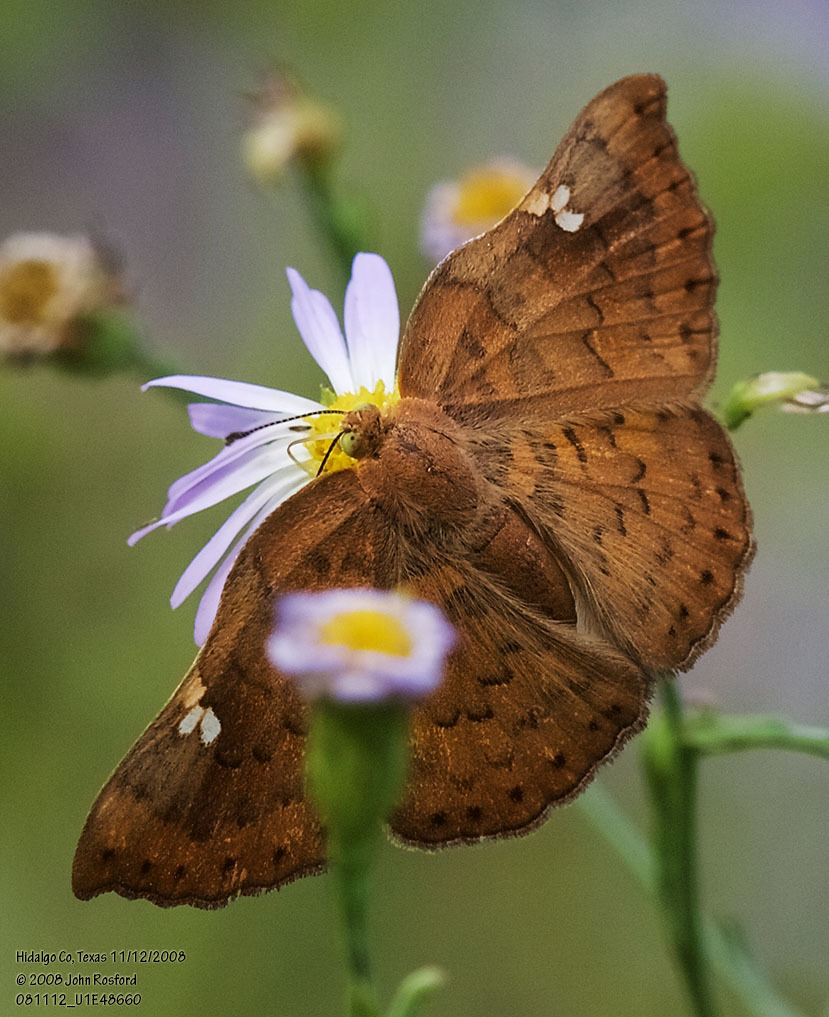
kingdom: Animalia
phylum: Arthropoda
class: Insecta
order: Lepidoptera
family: Riodinidae
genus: Curvie
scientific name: Curvie emesia
